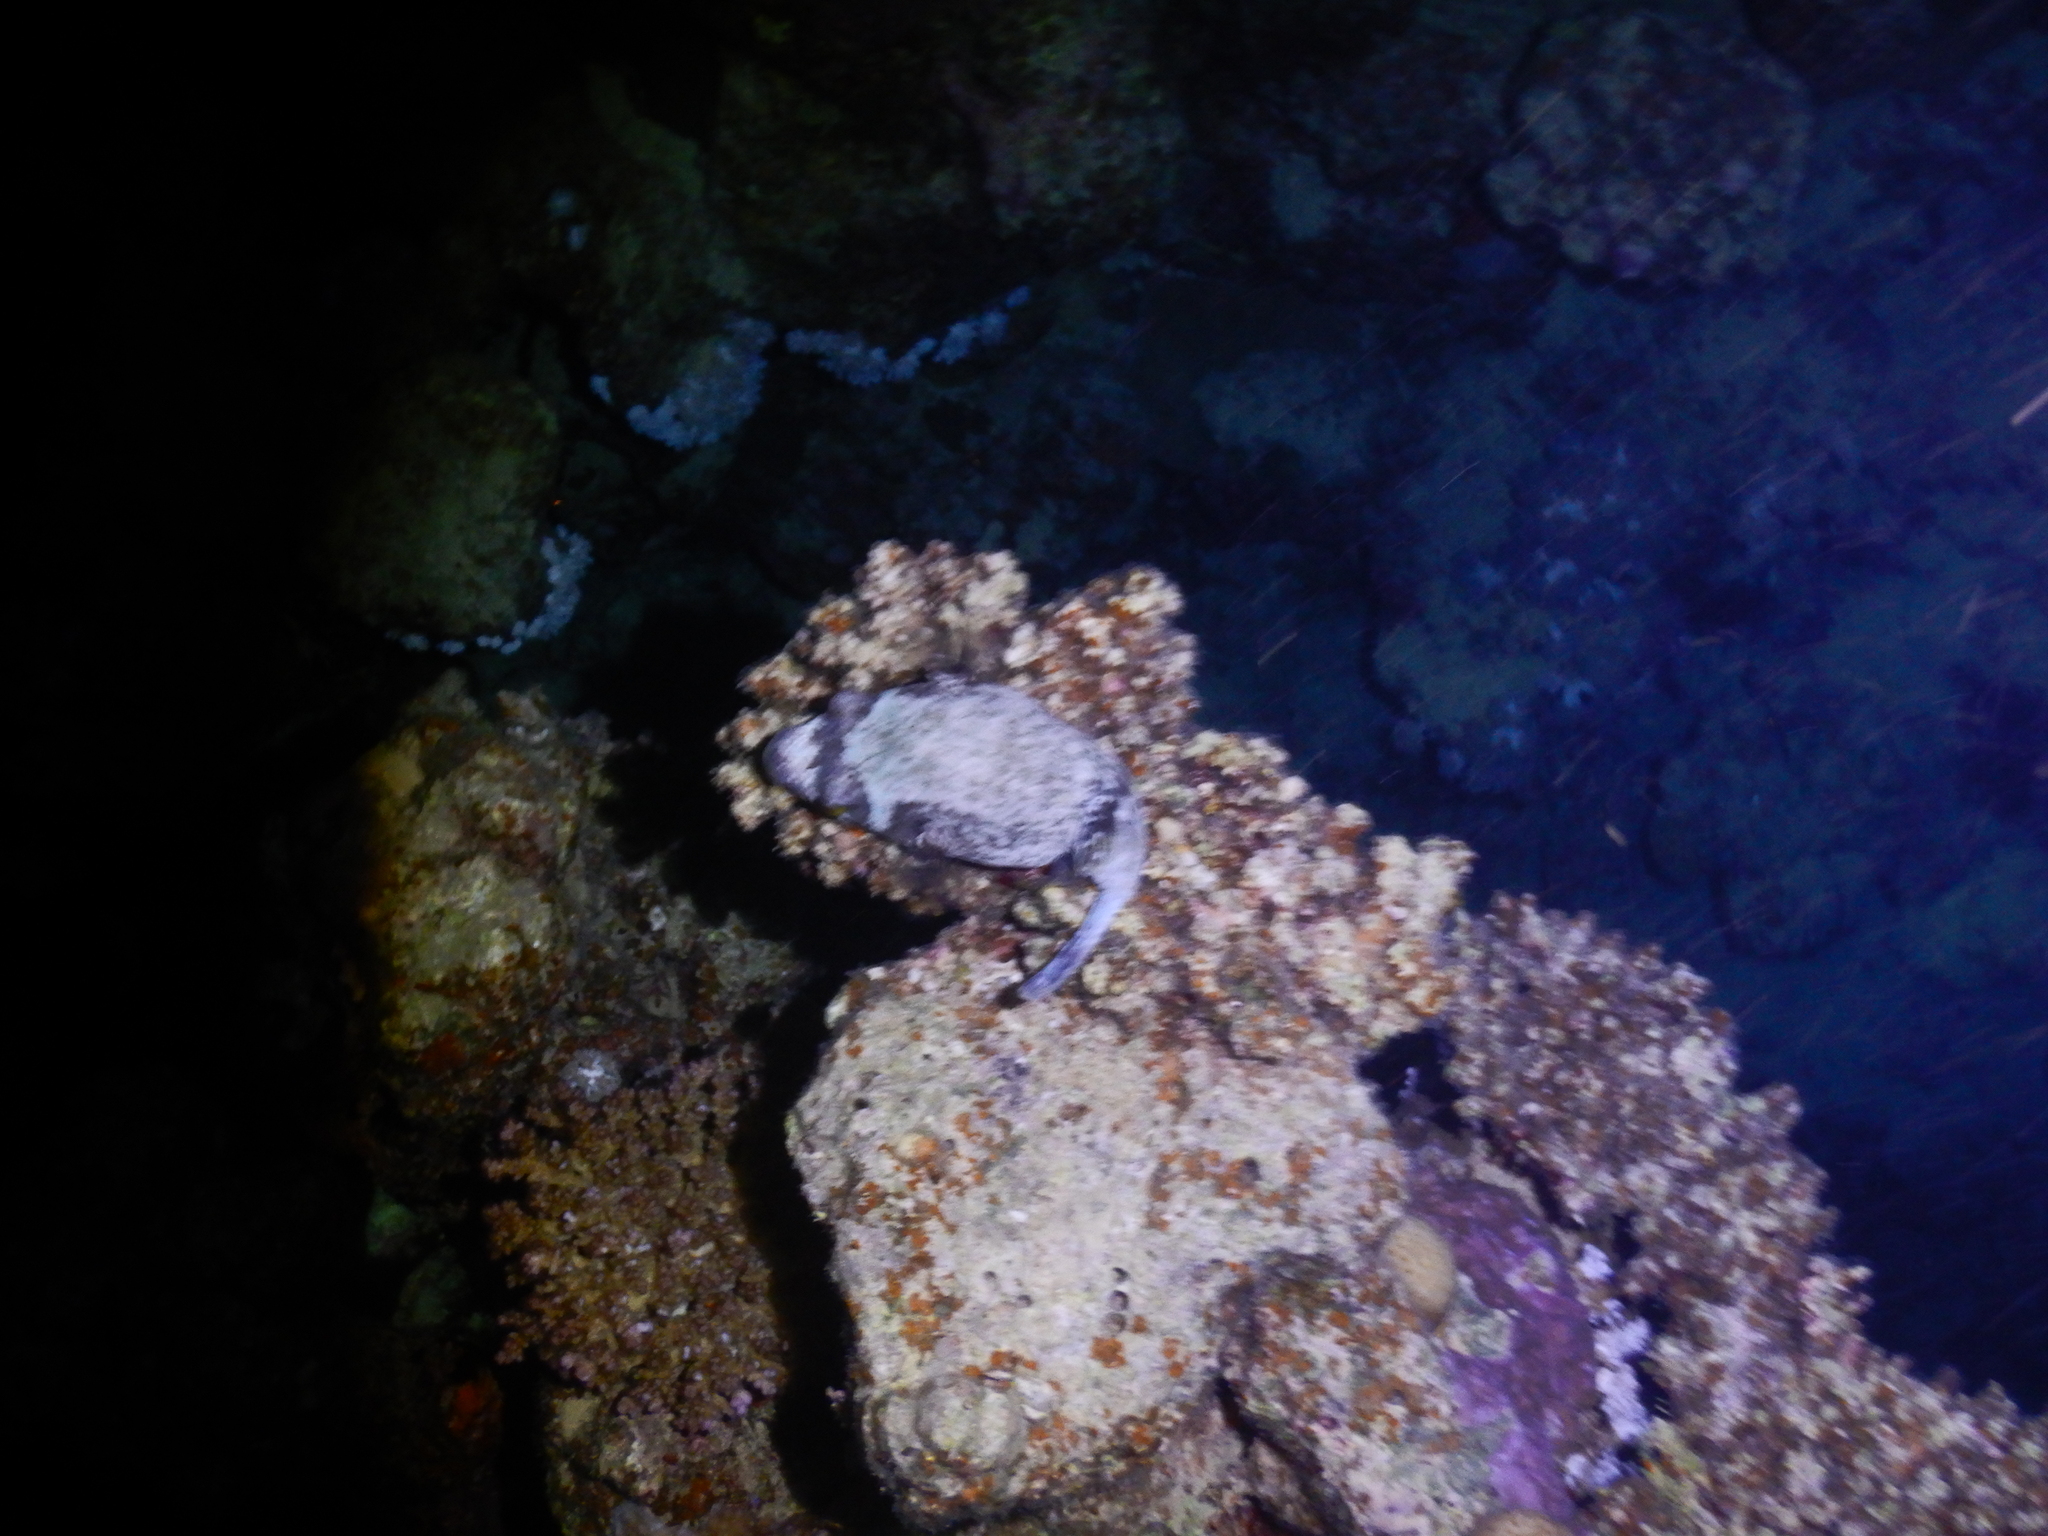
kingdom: Animalia
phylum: Chordata
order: Tetraodontiformes
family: Tetraodontidae
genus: Arothron
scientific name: Arothron diadematus
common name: Masked puffer
